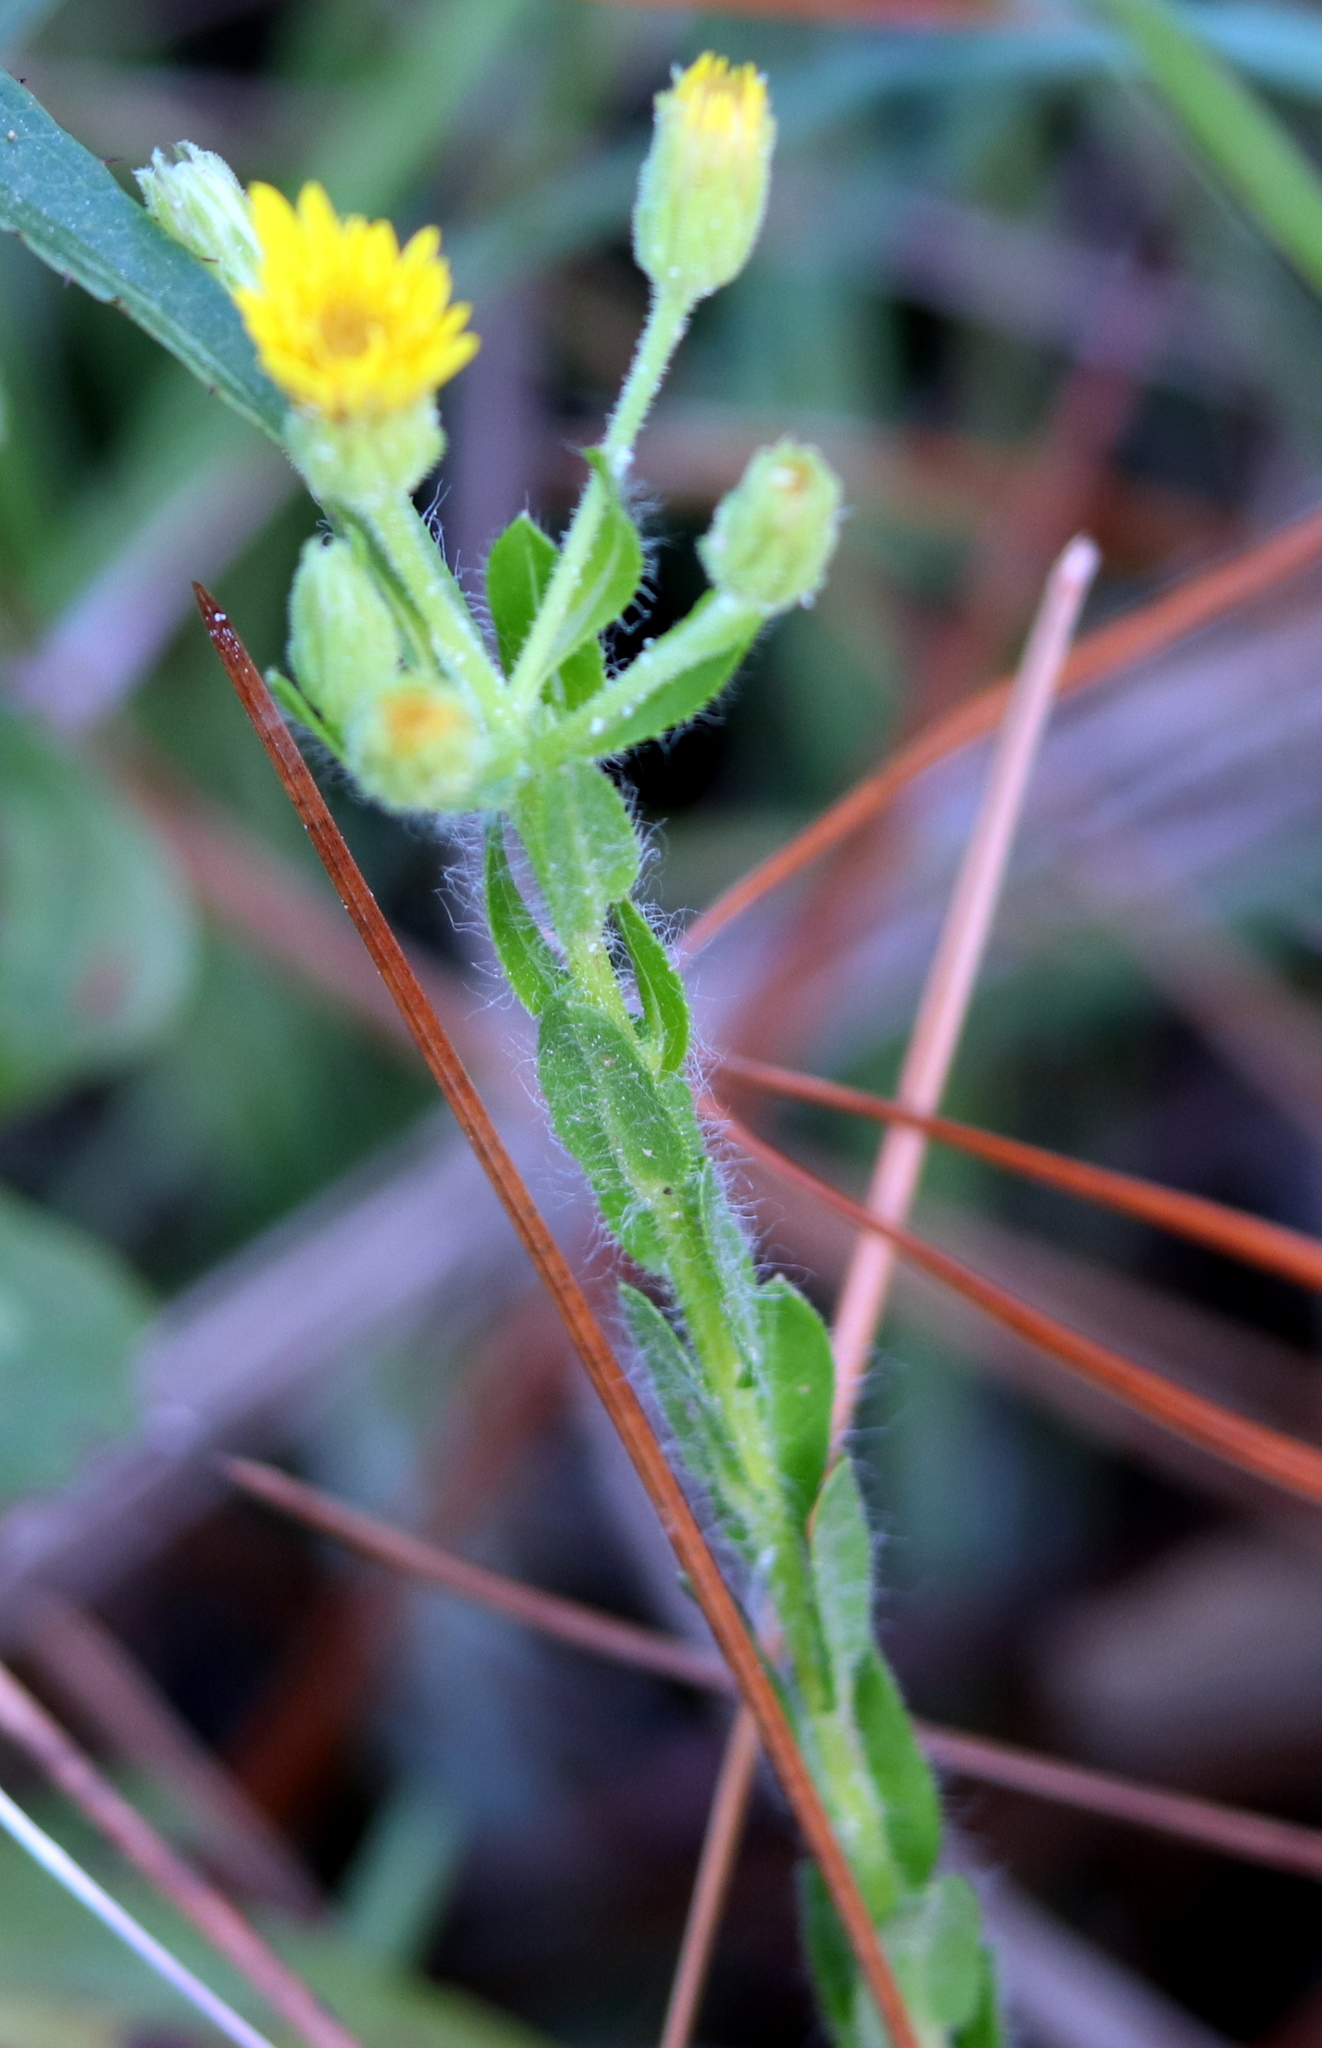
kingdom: Plantae
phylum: Tracheophyta
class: Magnoliopsida
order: Asterales
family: Asteraceae
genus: Chrysopsis
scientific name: Chrysopsis mariana
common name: Maryland golden-aster
